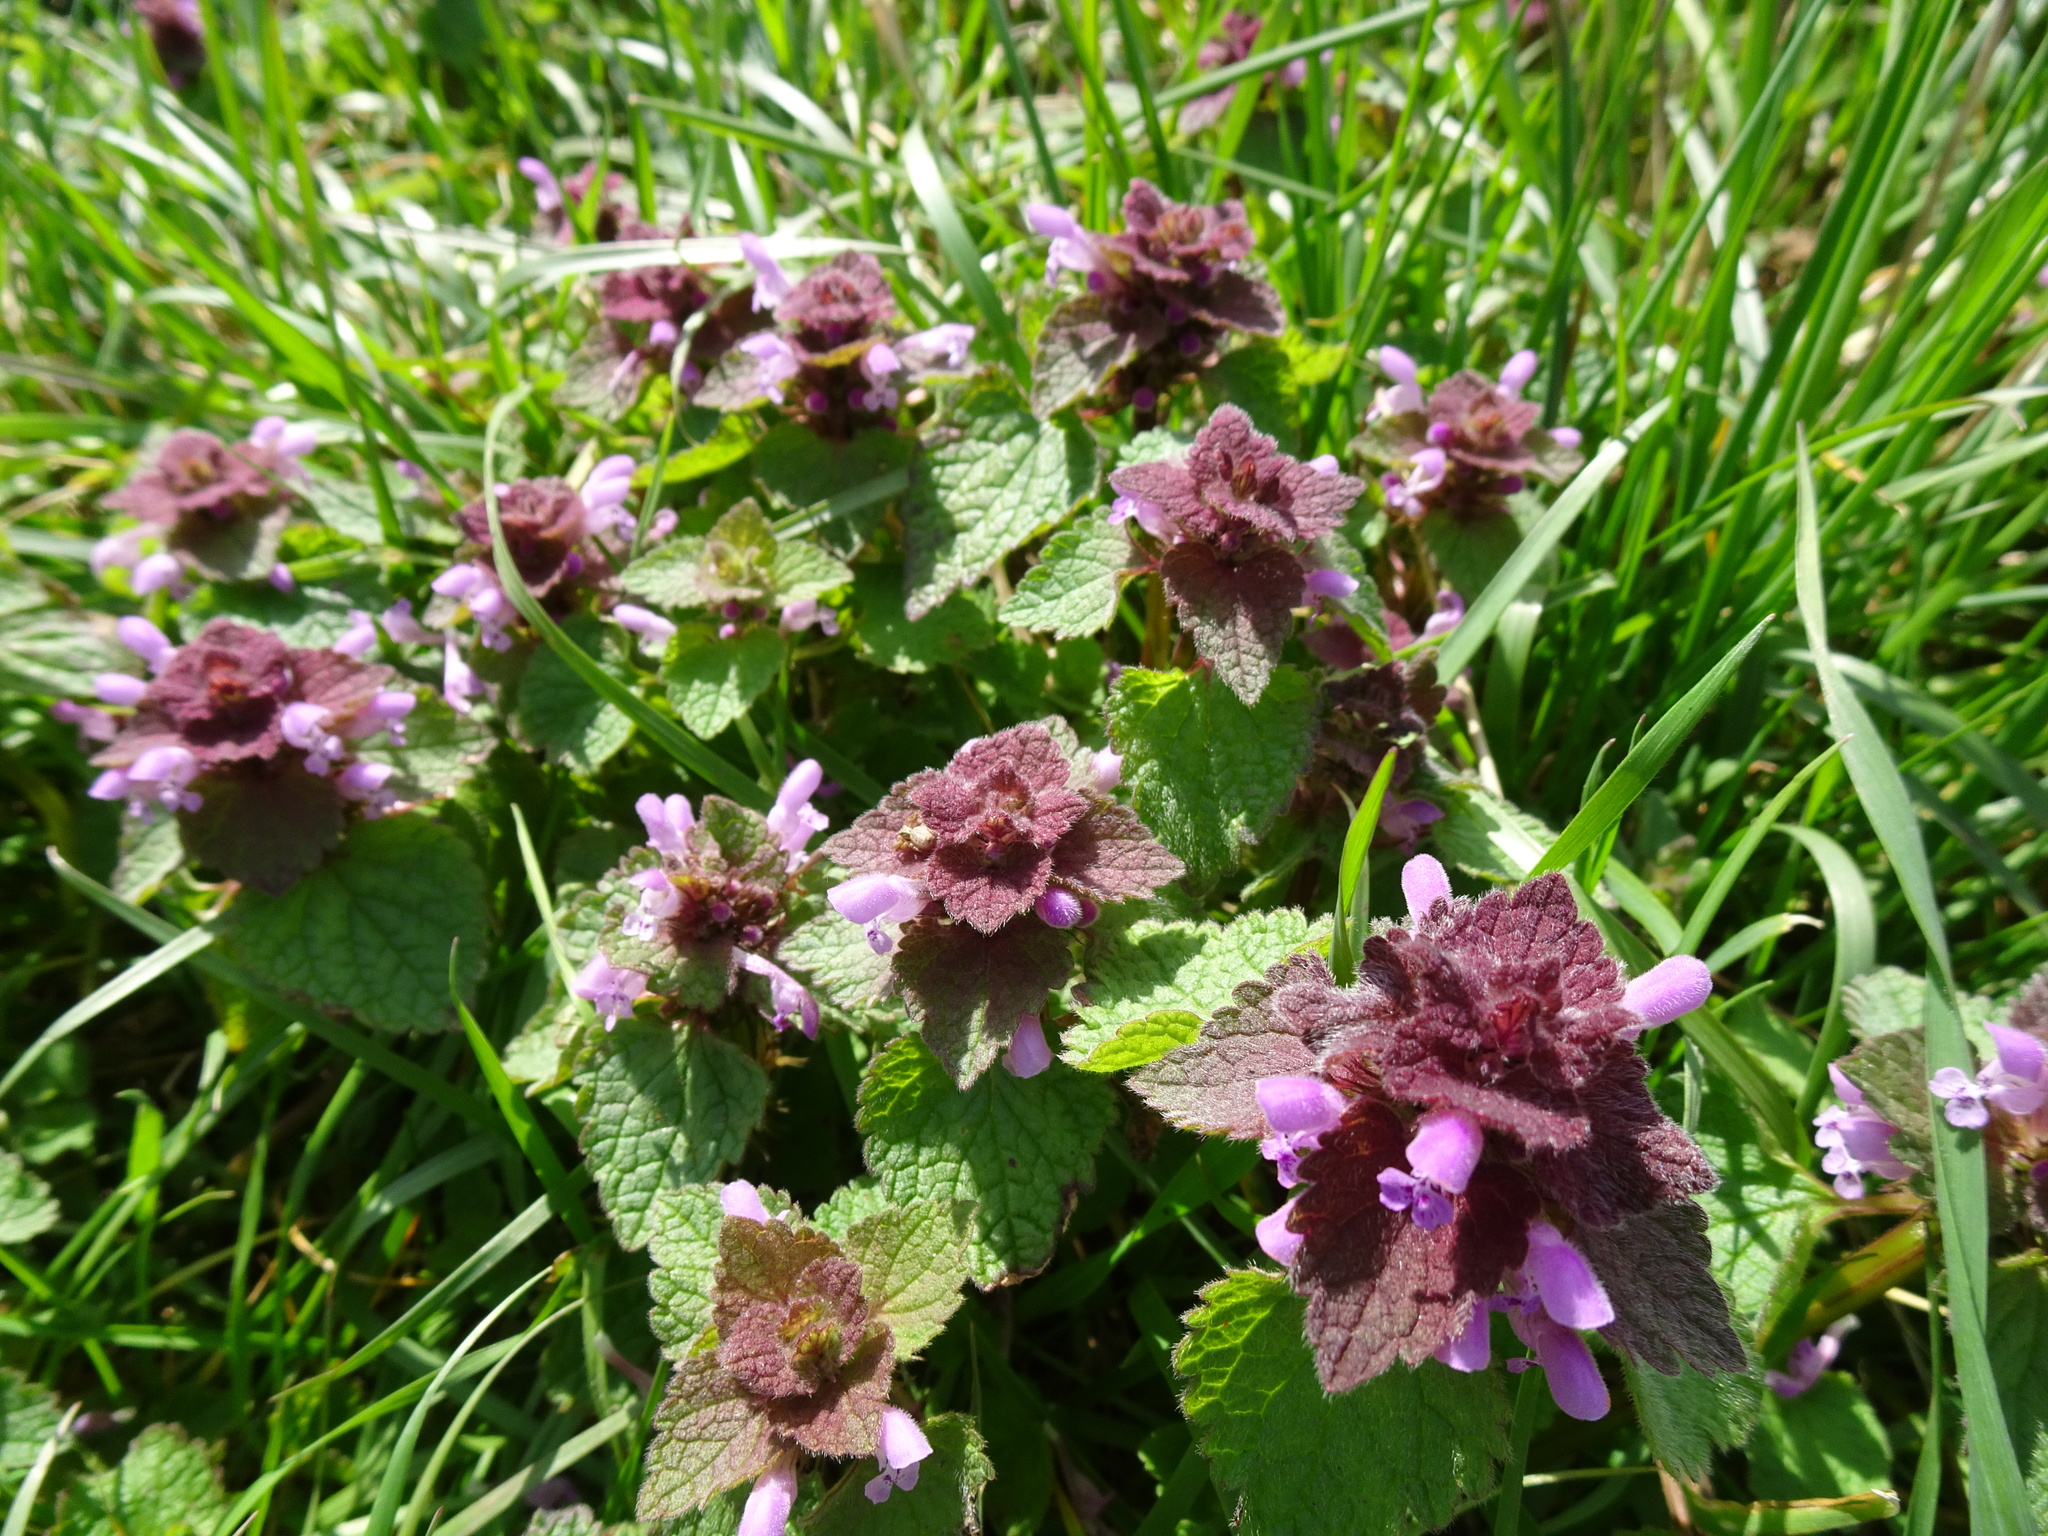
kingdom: Plantae
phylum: Tracheophyta
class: Magnoliopsida
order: Lamiales
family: Lamiaceae
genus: Lamium
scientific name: Lamium purpureum
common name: Red dead-nettle
